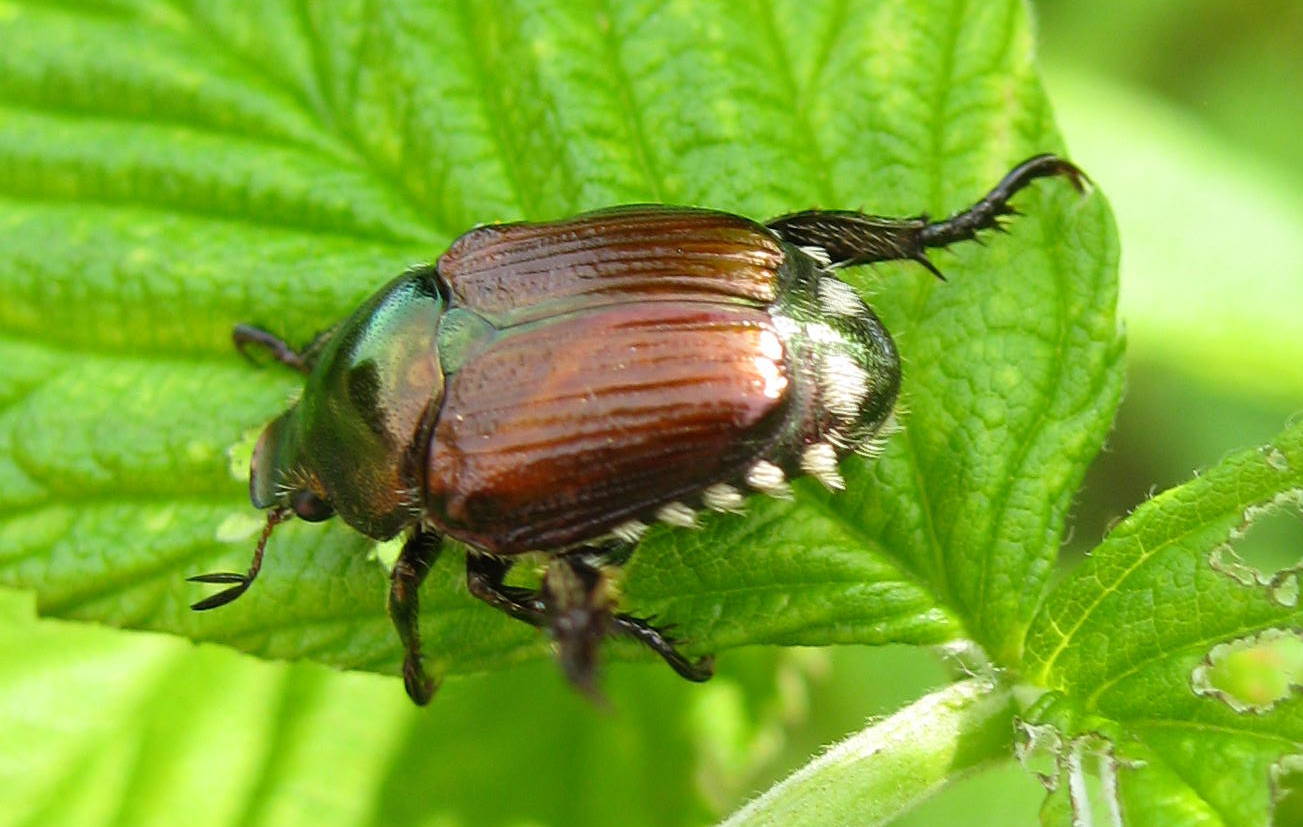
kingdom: Animalia
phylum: Arthropoda
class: Insecta
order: Coleoptera
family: Scarabaeidae
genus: Popillia
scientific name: Popillia japonica
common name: Japanese beetle
